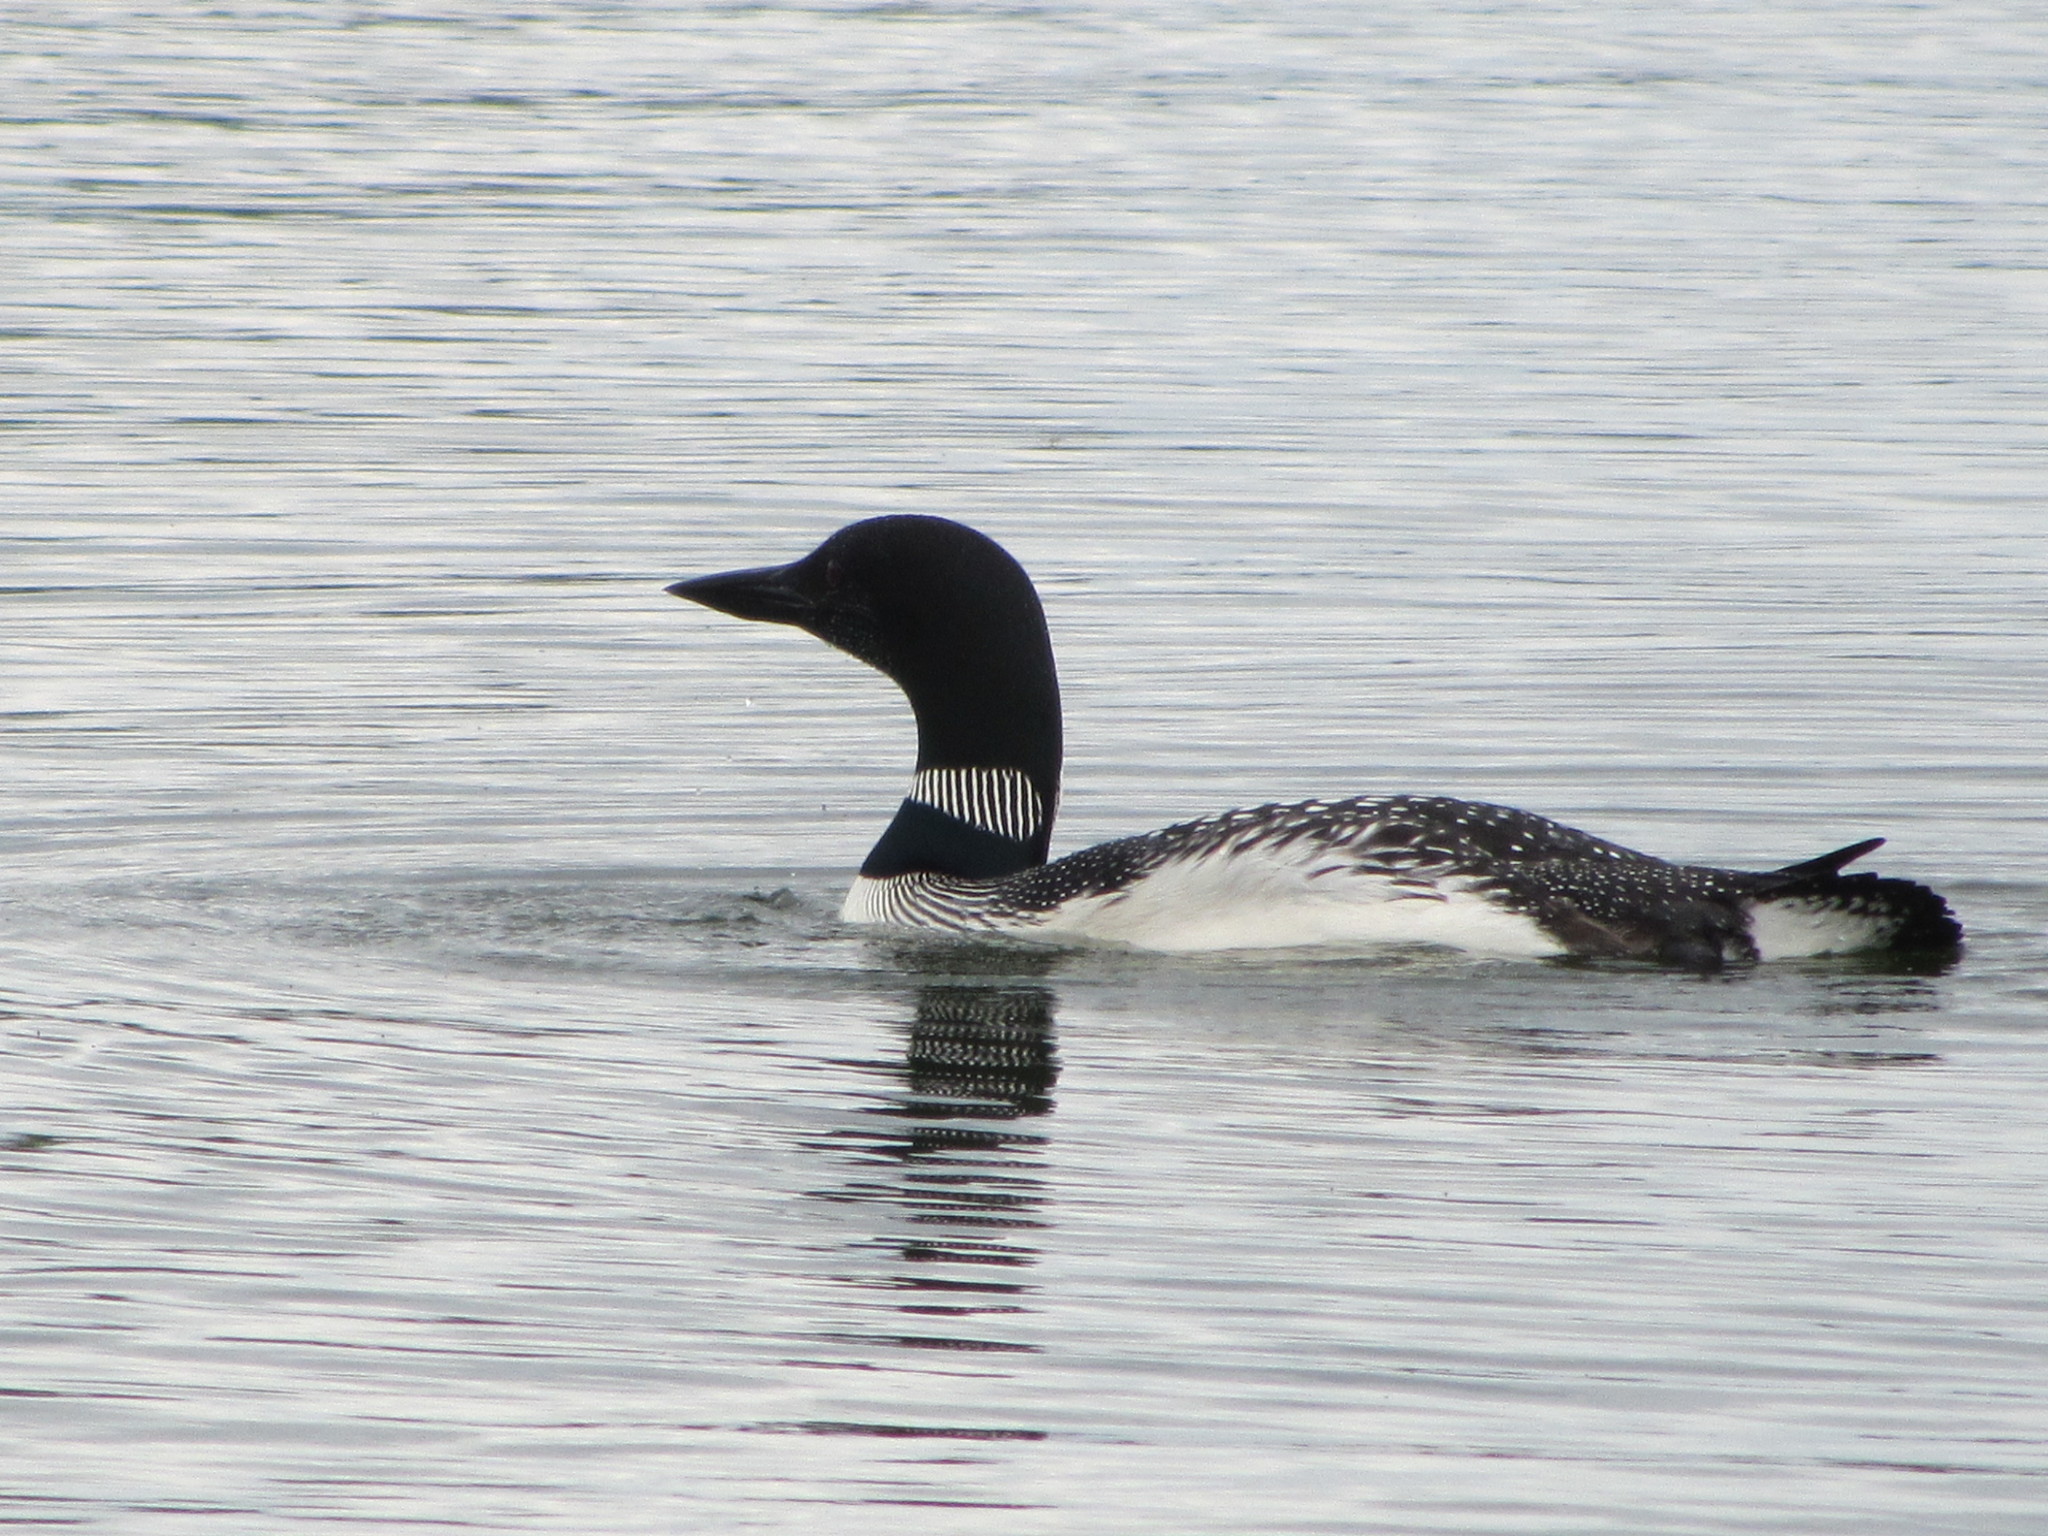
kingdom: Animalia
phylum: Chordata
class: Aves
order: Gaviiformes
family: Gaviidae
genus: Gavia
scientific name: Gavia immer
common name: Common loon
